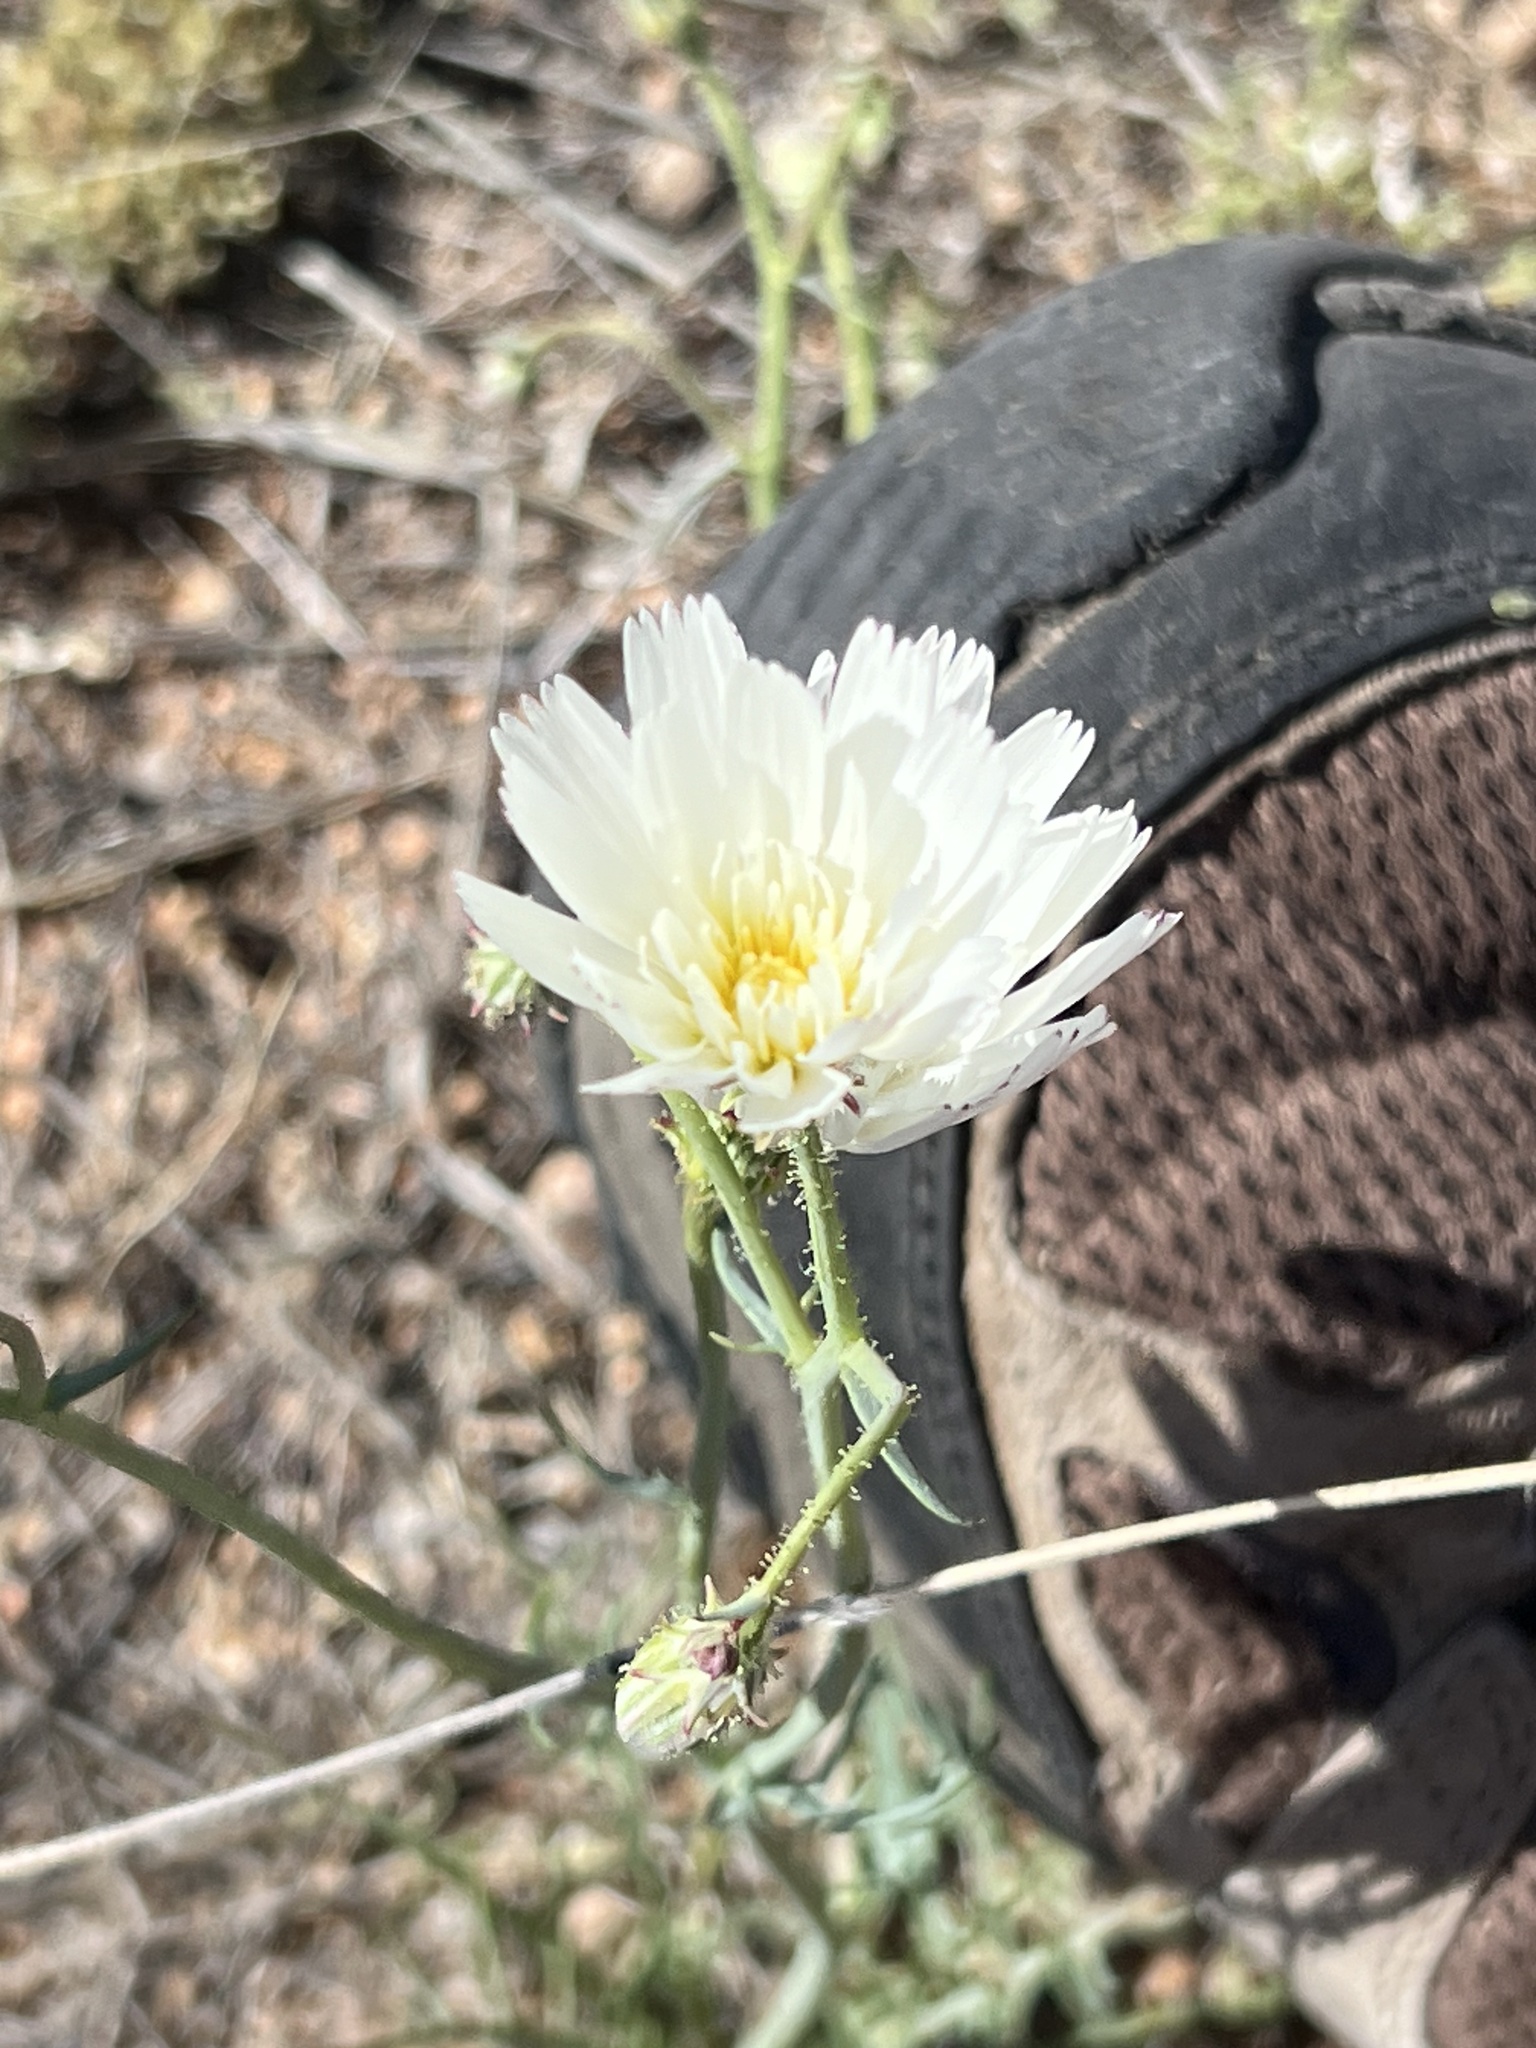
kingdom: Plantae
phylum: Tracheophyta
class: Magnoliopsida
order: Asterales
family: Asteraceae
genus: Calycoseris
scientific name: Calycoseris wrightii
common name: White tackstem
